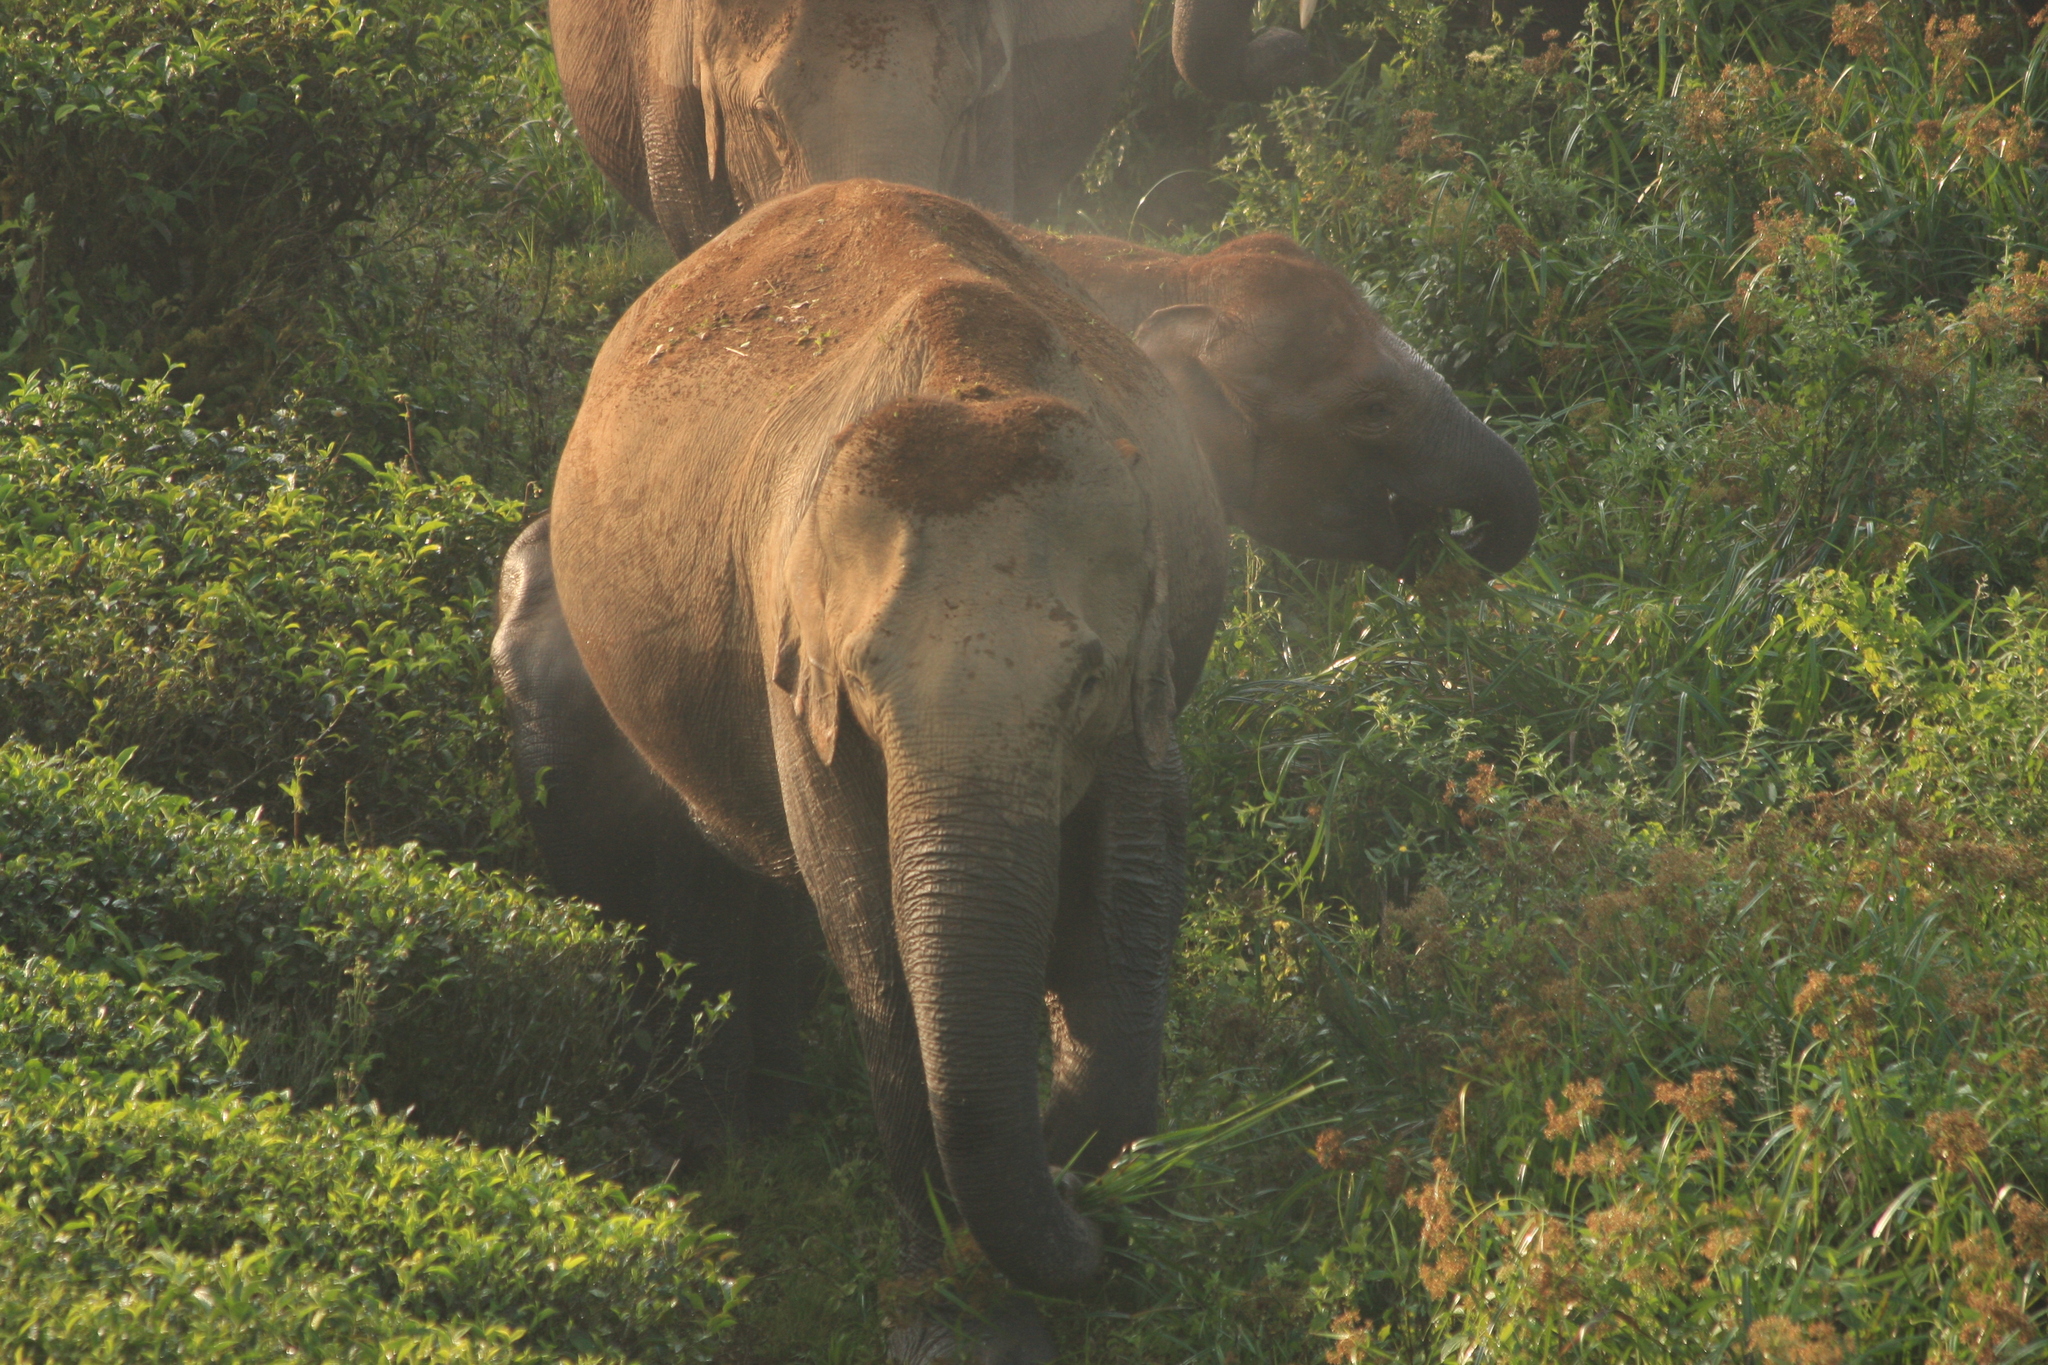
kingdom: Animalia
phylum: Chordata
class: Mammalia
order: Proboscidea
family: Elephantidae
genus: Elephas
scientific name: Elephas maximus
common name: Asian elephant
